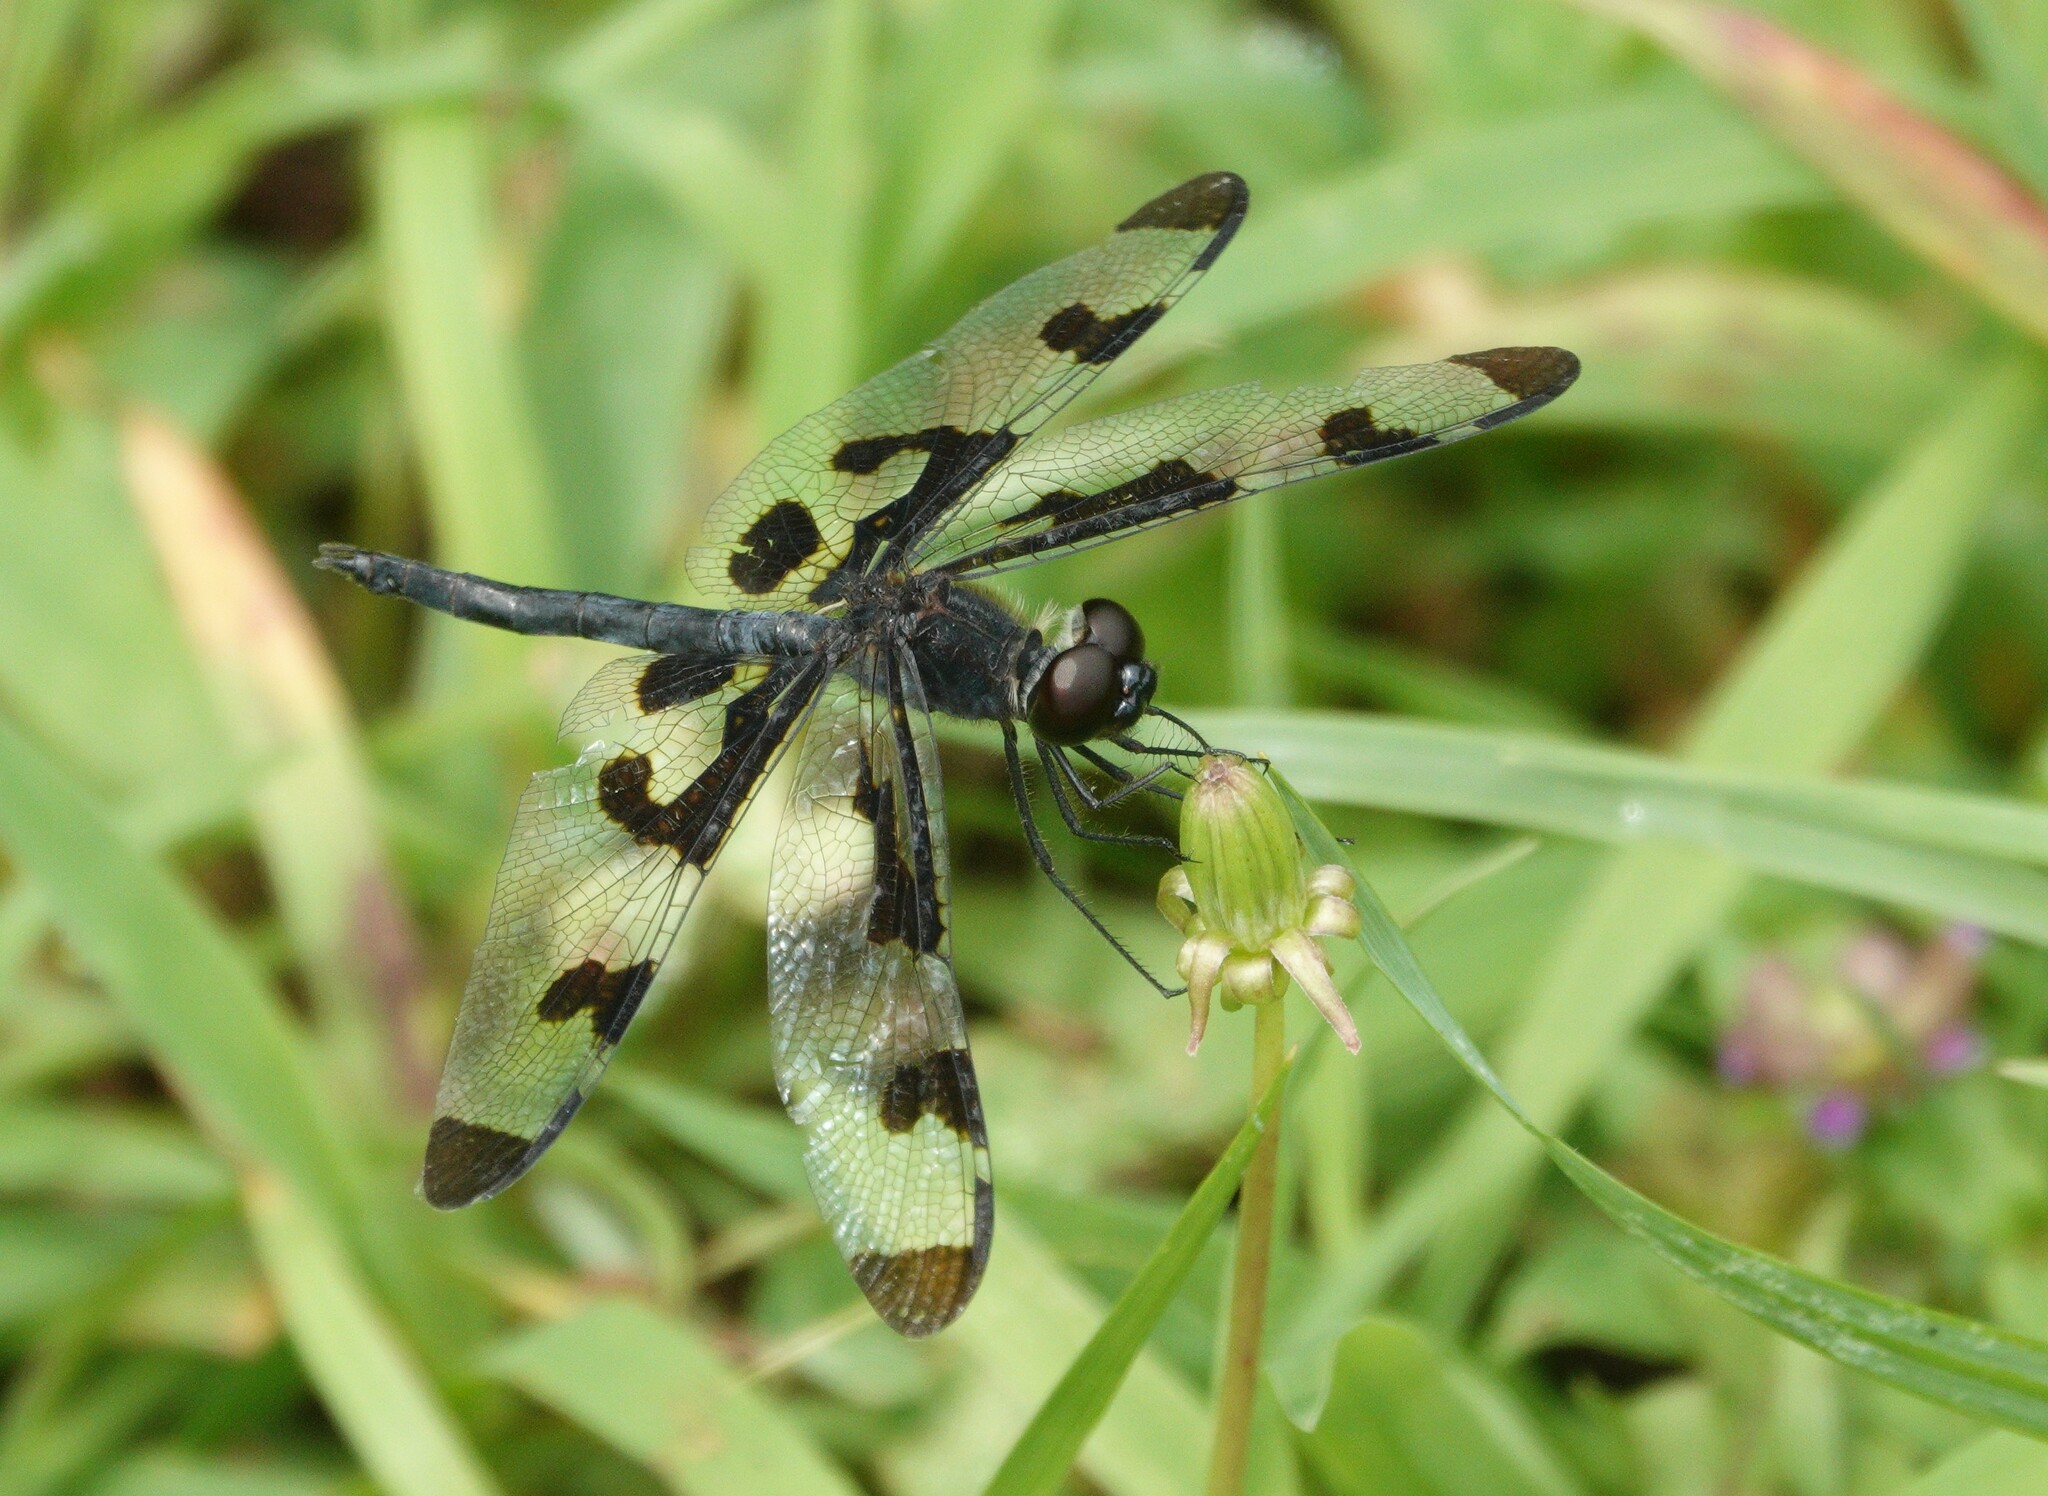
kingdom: Animalia
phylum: Arthropoda
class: Insecta
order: Odonata
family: Libellulidae
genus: Celithemis
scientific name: Celithemis fasciata
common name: Banded pennant
